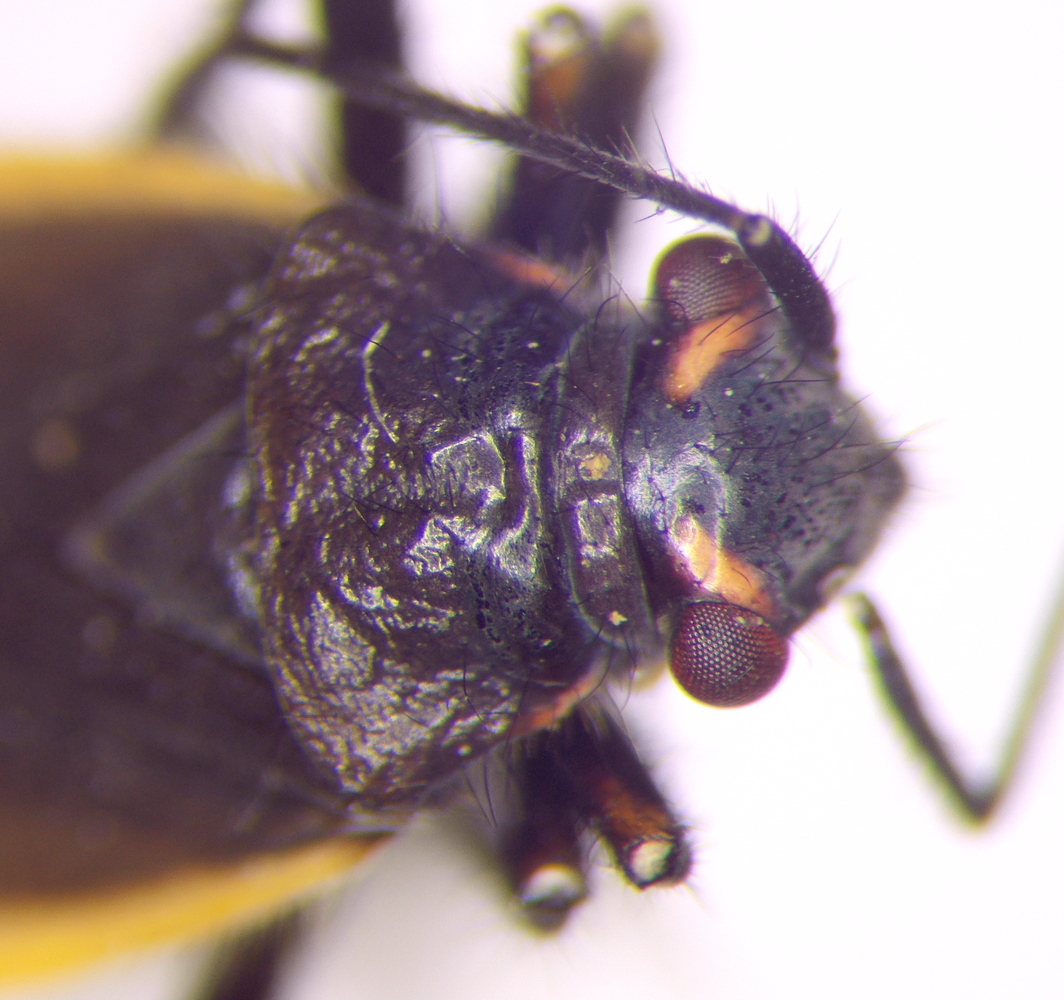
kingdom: Animalia
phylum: Arthropoda
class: Insecta
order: Hemiptera
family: Miridae
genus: Capsodes
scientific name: Capsodes gothicus
